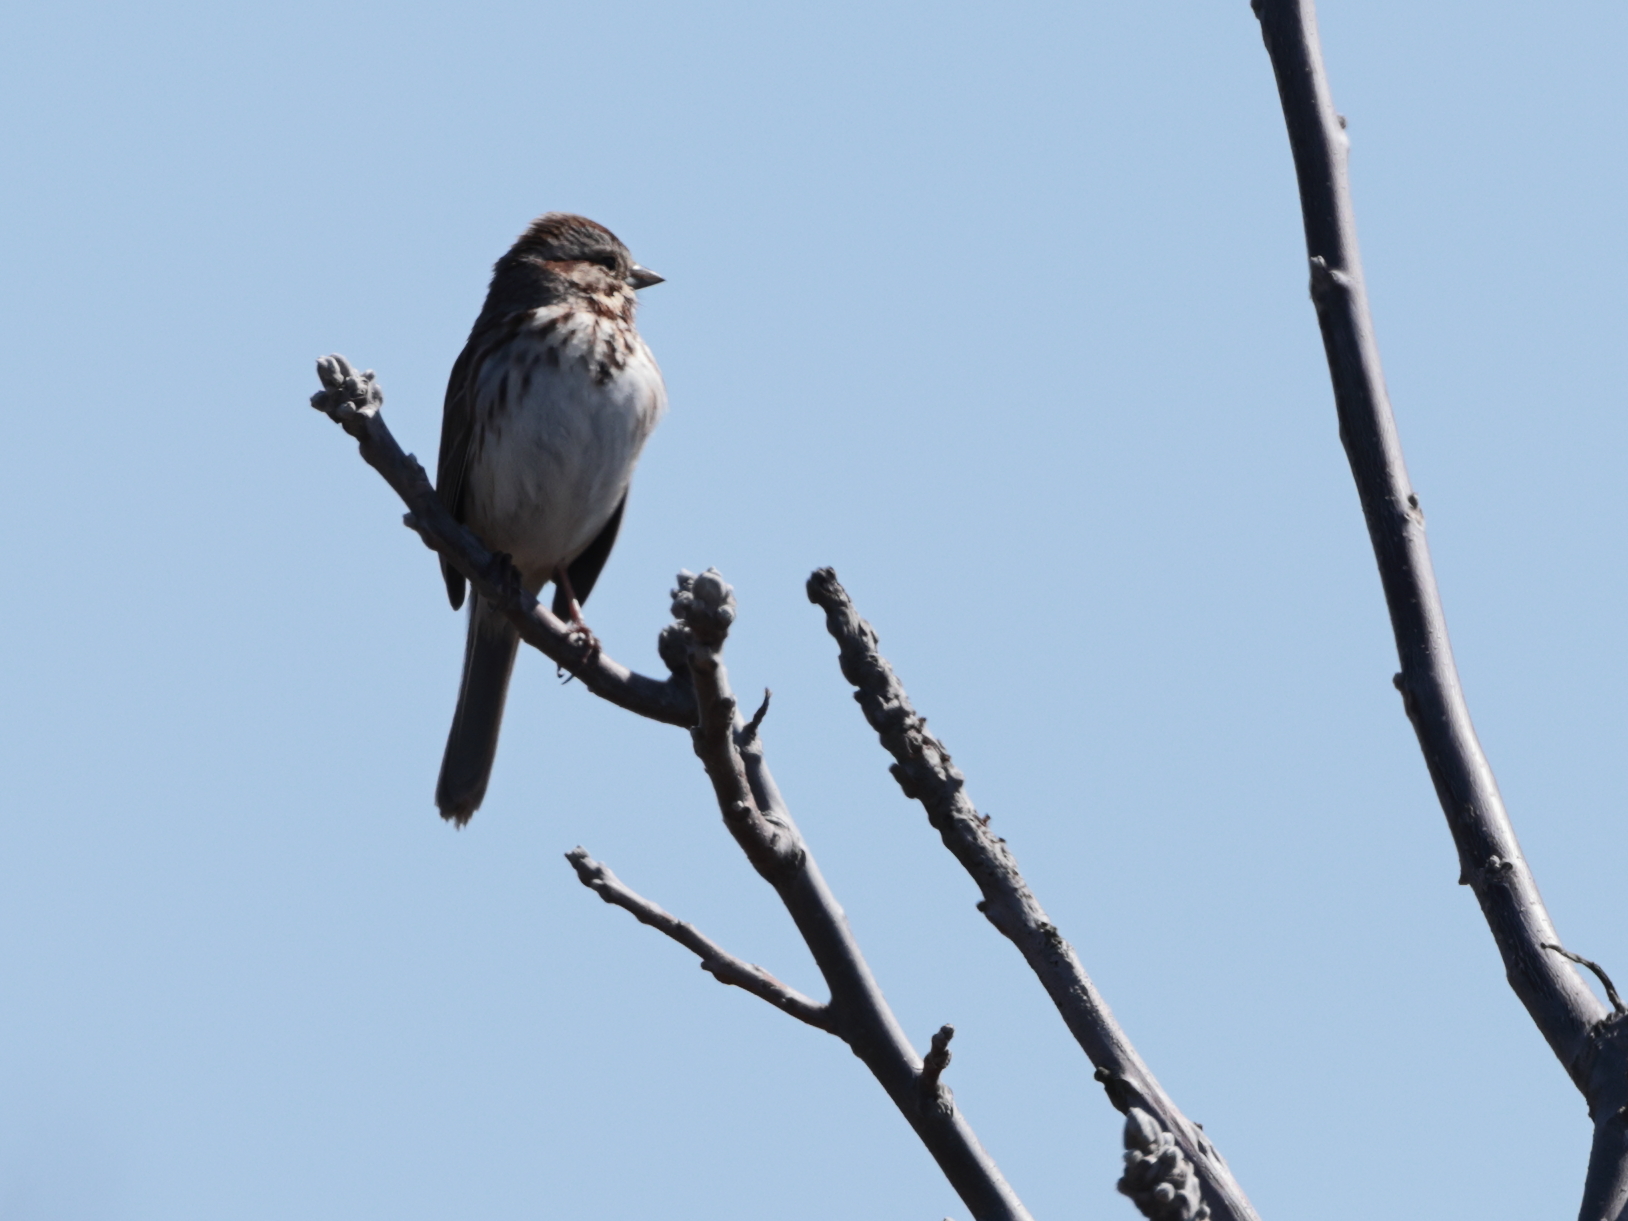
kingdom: Animalia
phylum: Chordata
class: Aves
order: Passeriformes
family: Passerellidae
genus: Melospiza
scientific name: Melospiza melodia
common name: Song sparrow
